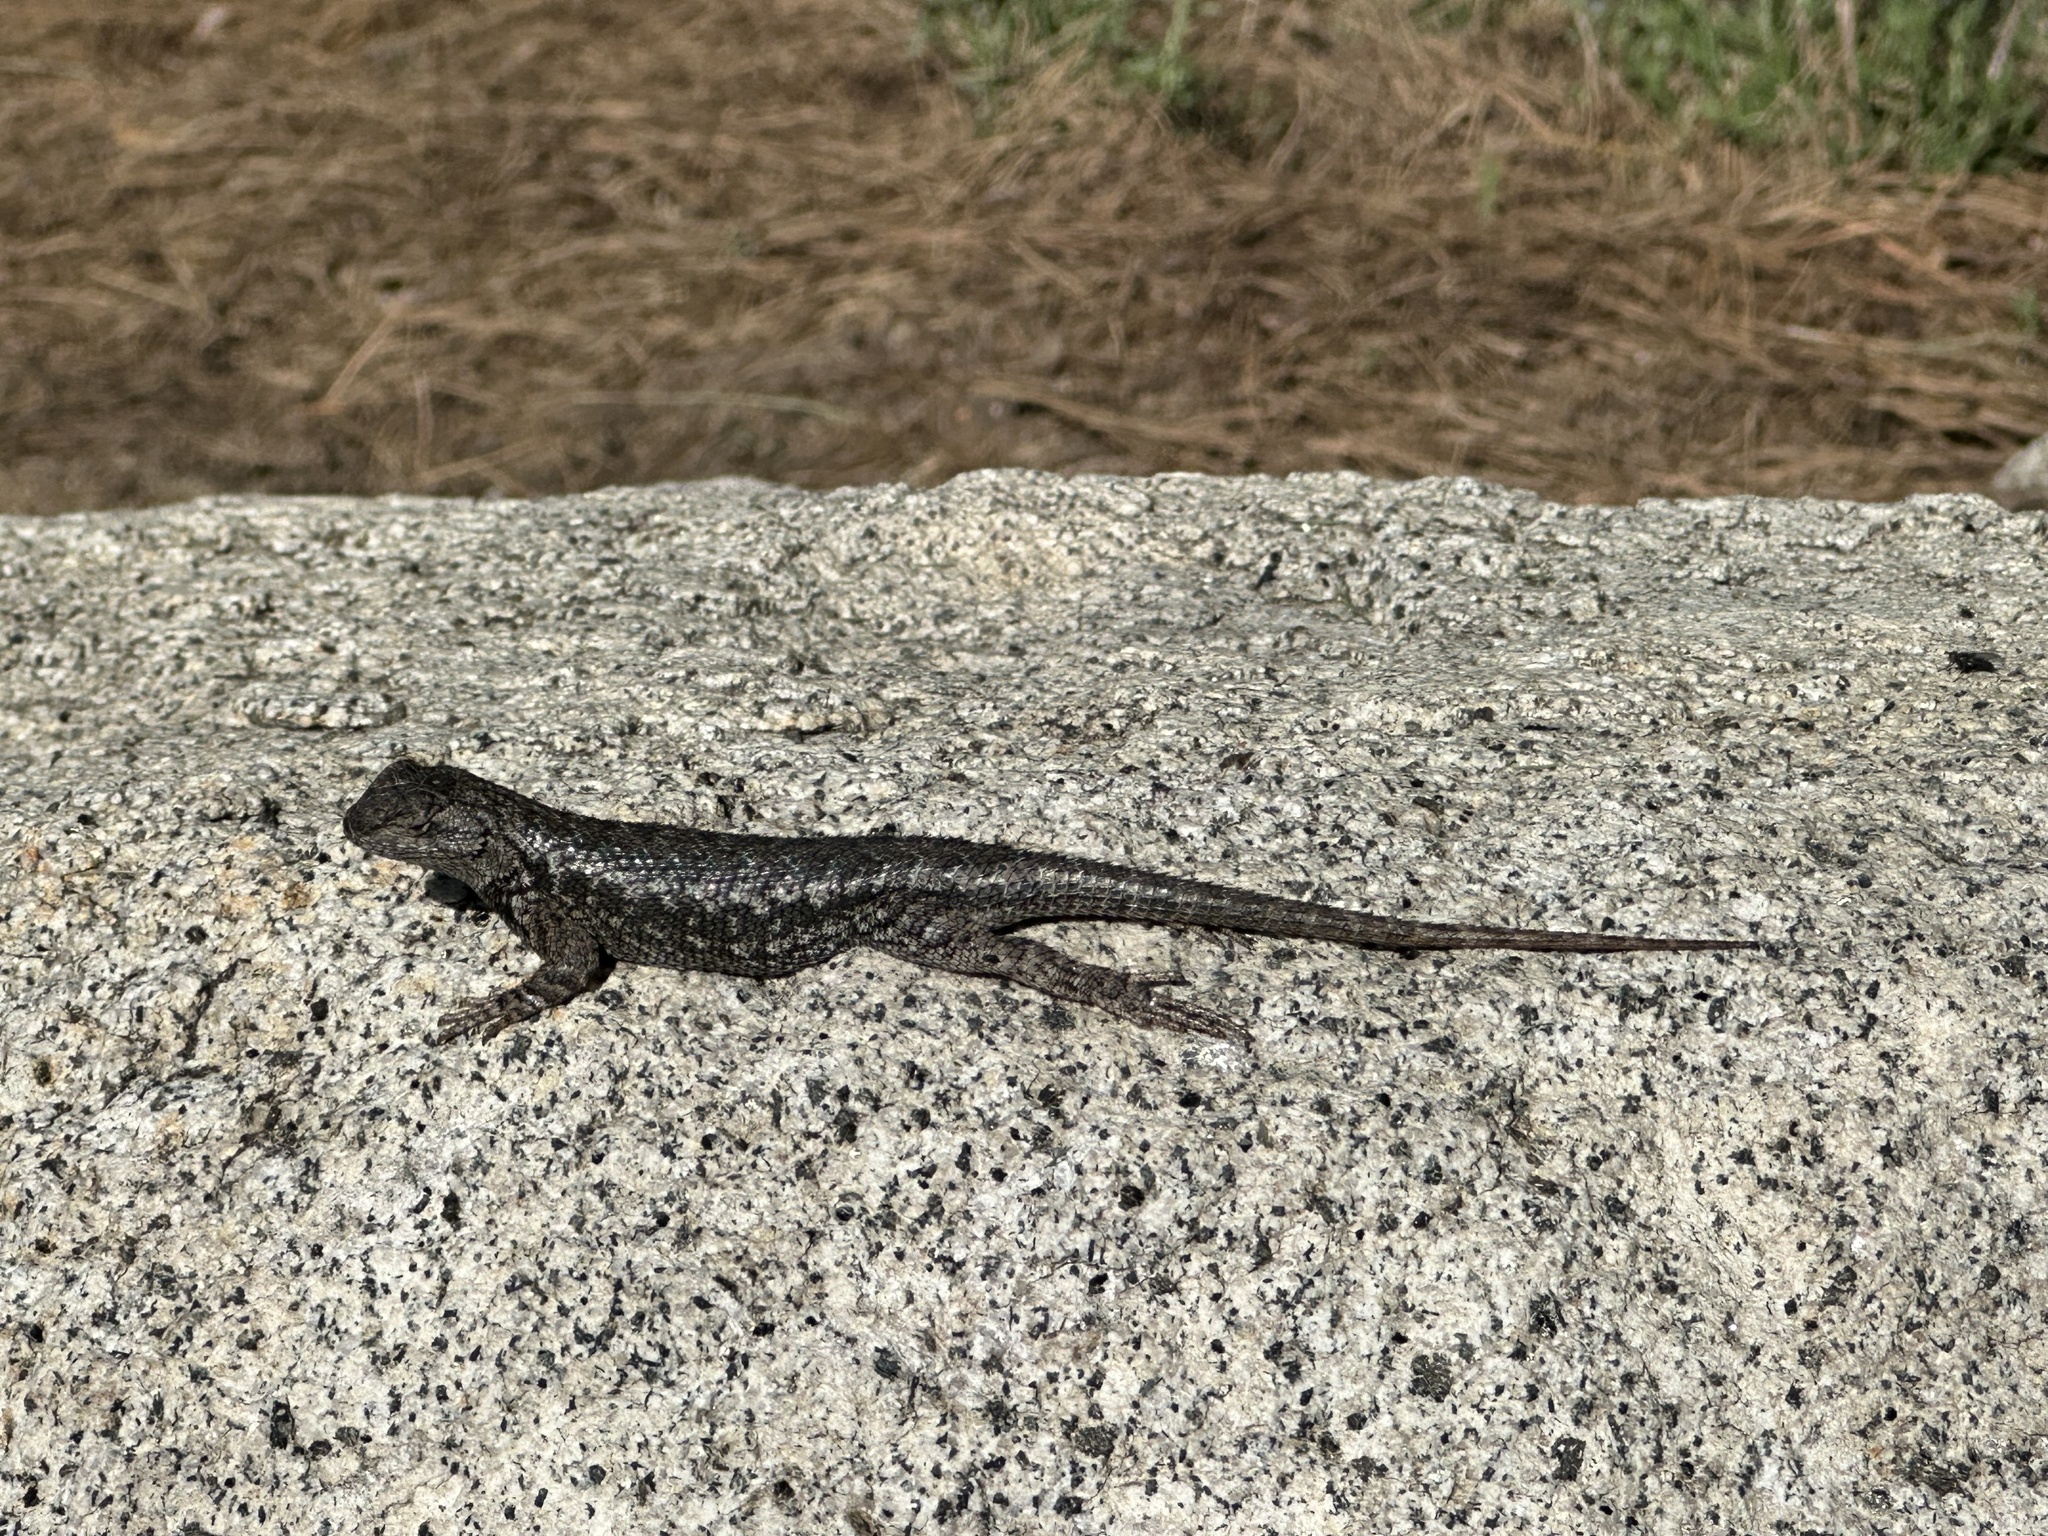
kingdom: Animalia
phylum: Chordata
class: Squamata
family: Phrynosomatidae
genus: Sceloporus
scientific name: Sceloporus occidentalis
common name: Western fence lizard
